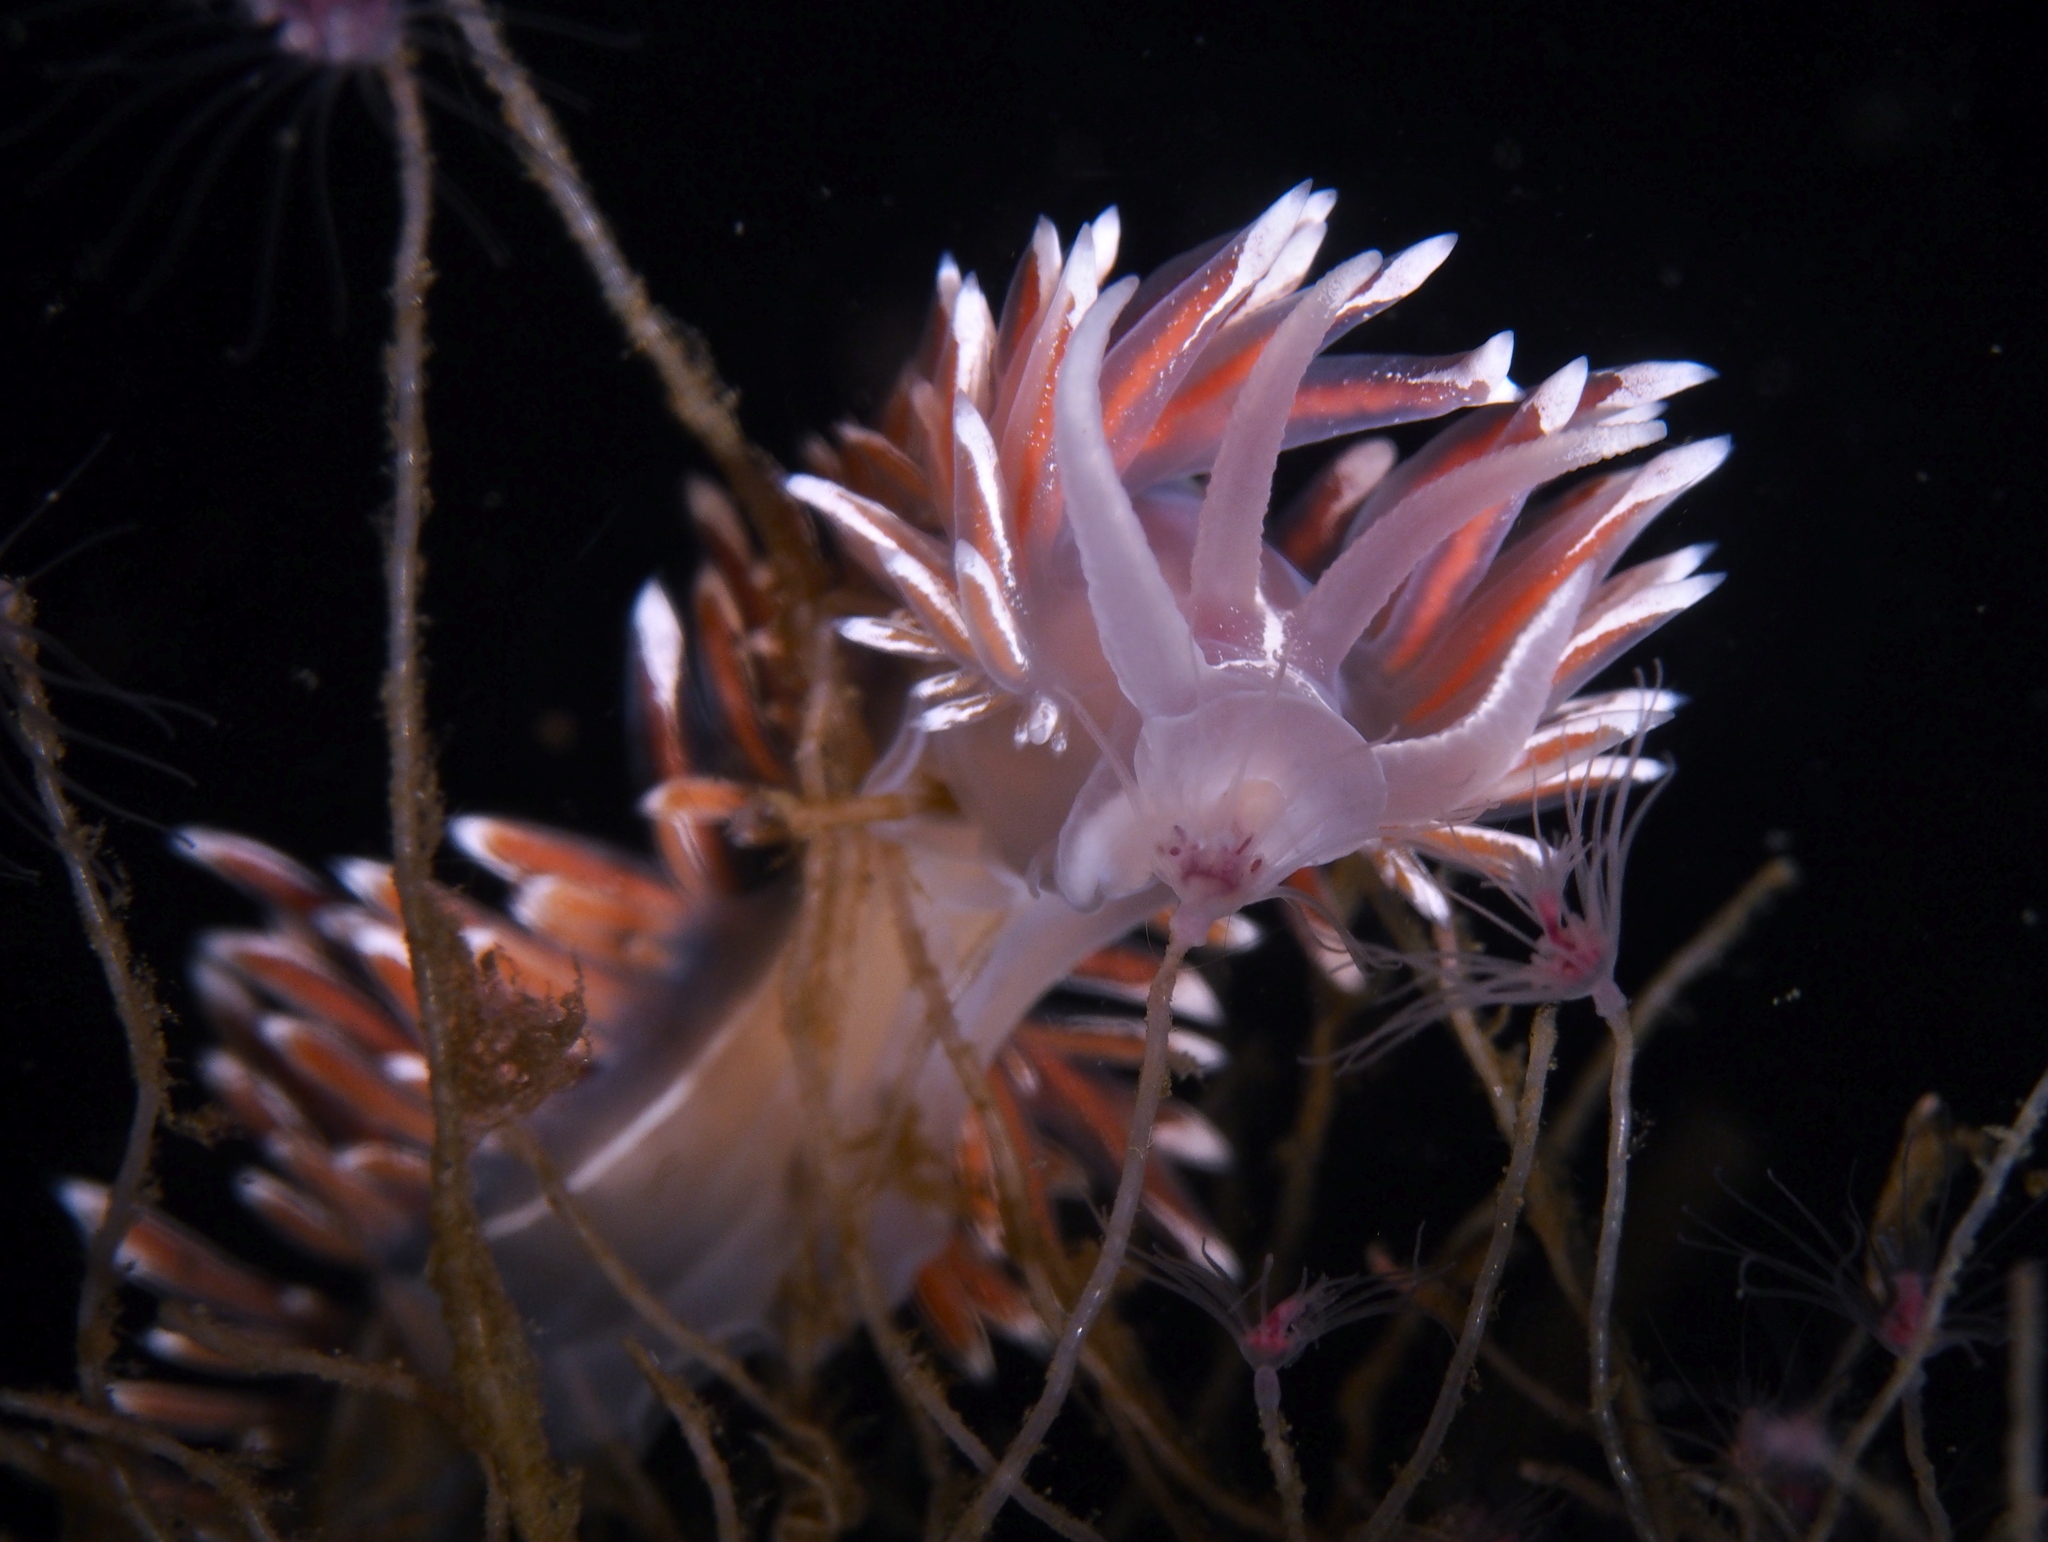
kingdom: Animalia
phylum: Mollusca
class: Gastropoda
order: Nudibranchia
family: Coryphellidae
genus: Coryphella
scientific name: Coryphella lineata
